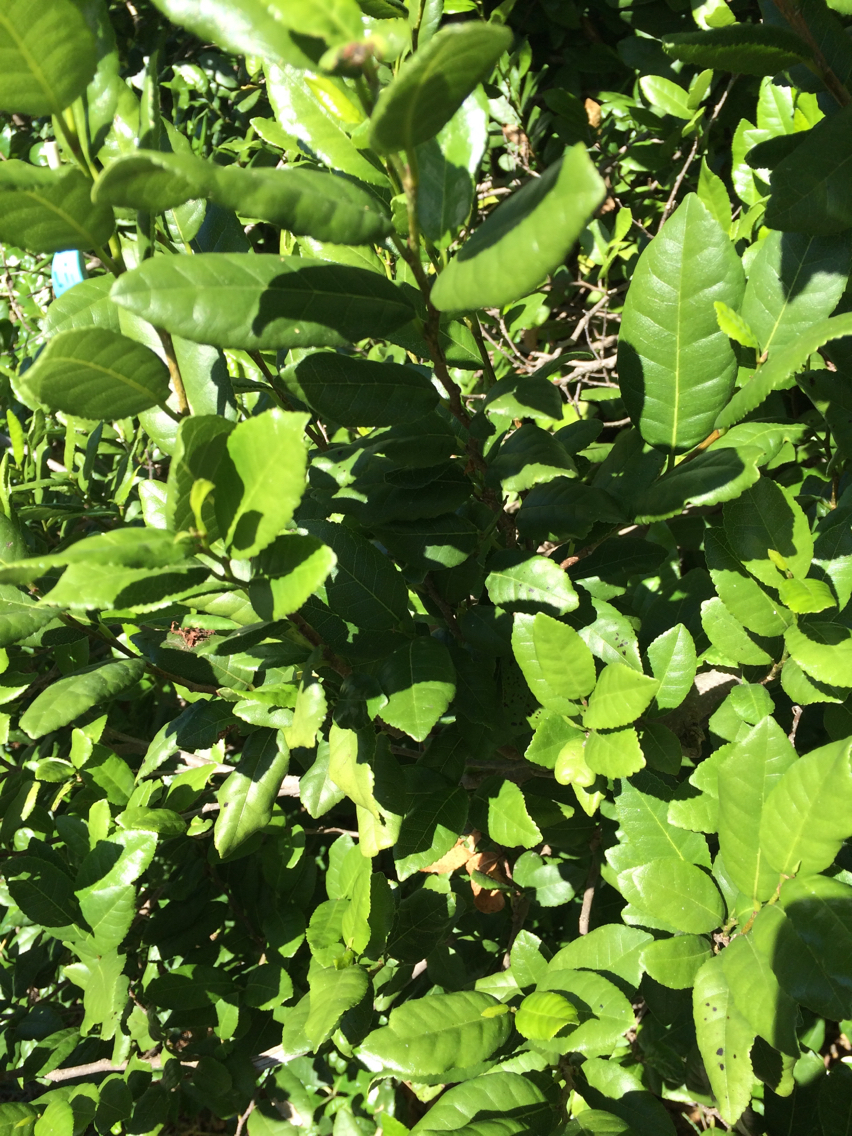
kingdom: Plantae
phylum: Tracheophyta
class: Magnoliopsida
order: Rosales
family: Moraceae
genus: Paratrophis
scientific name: Paratrophis banksii
